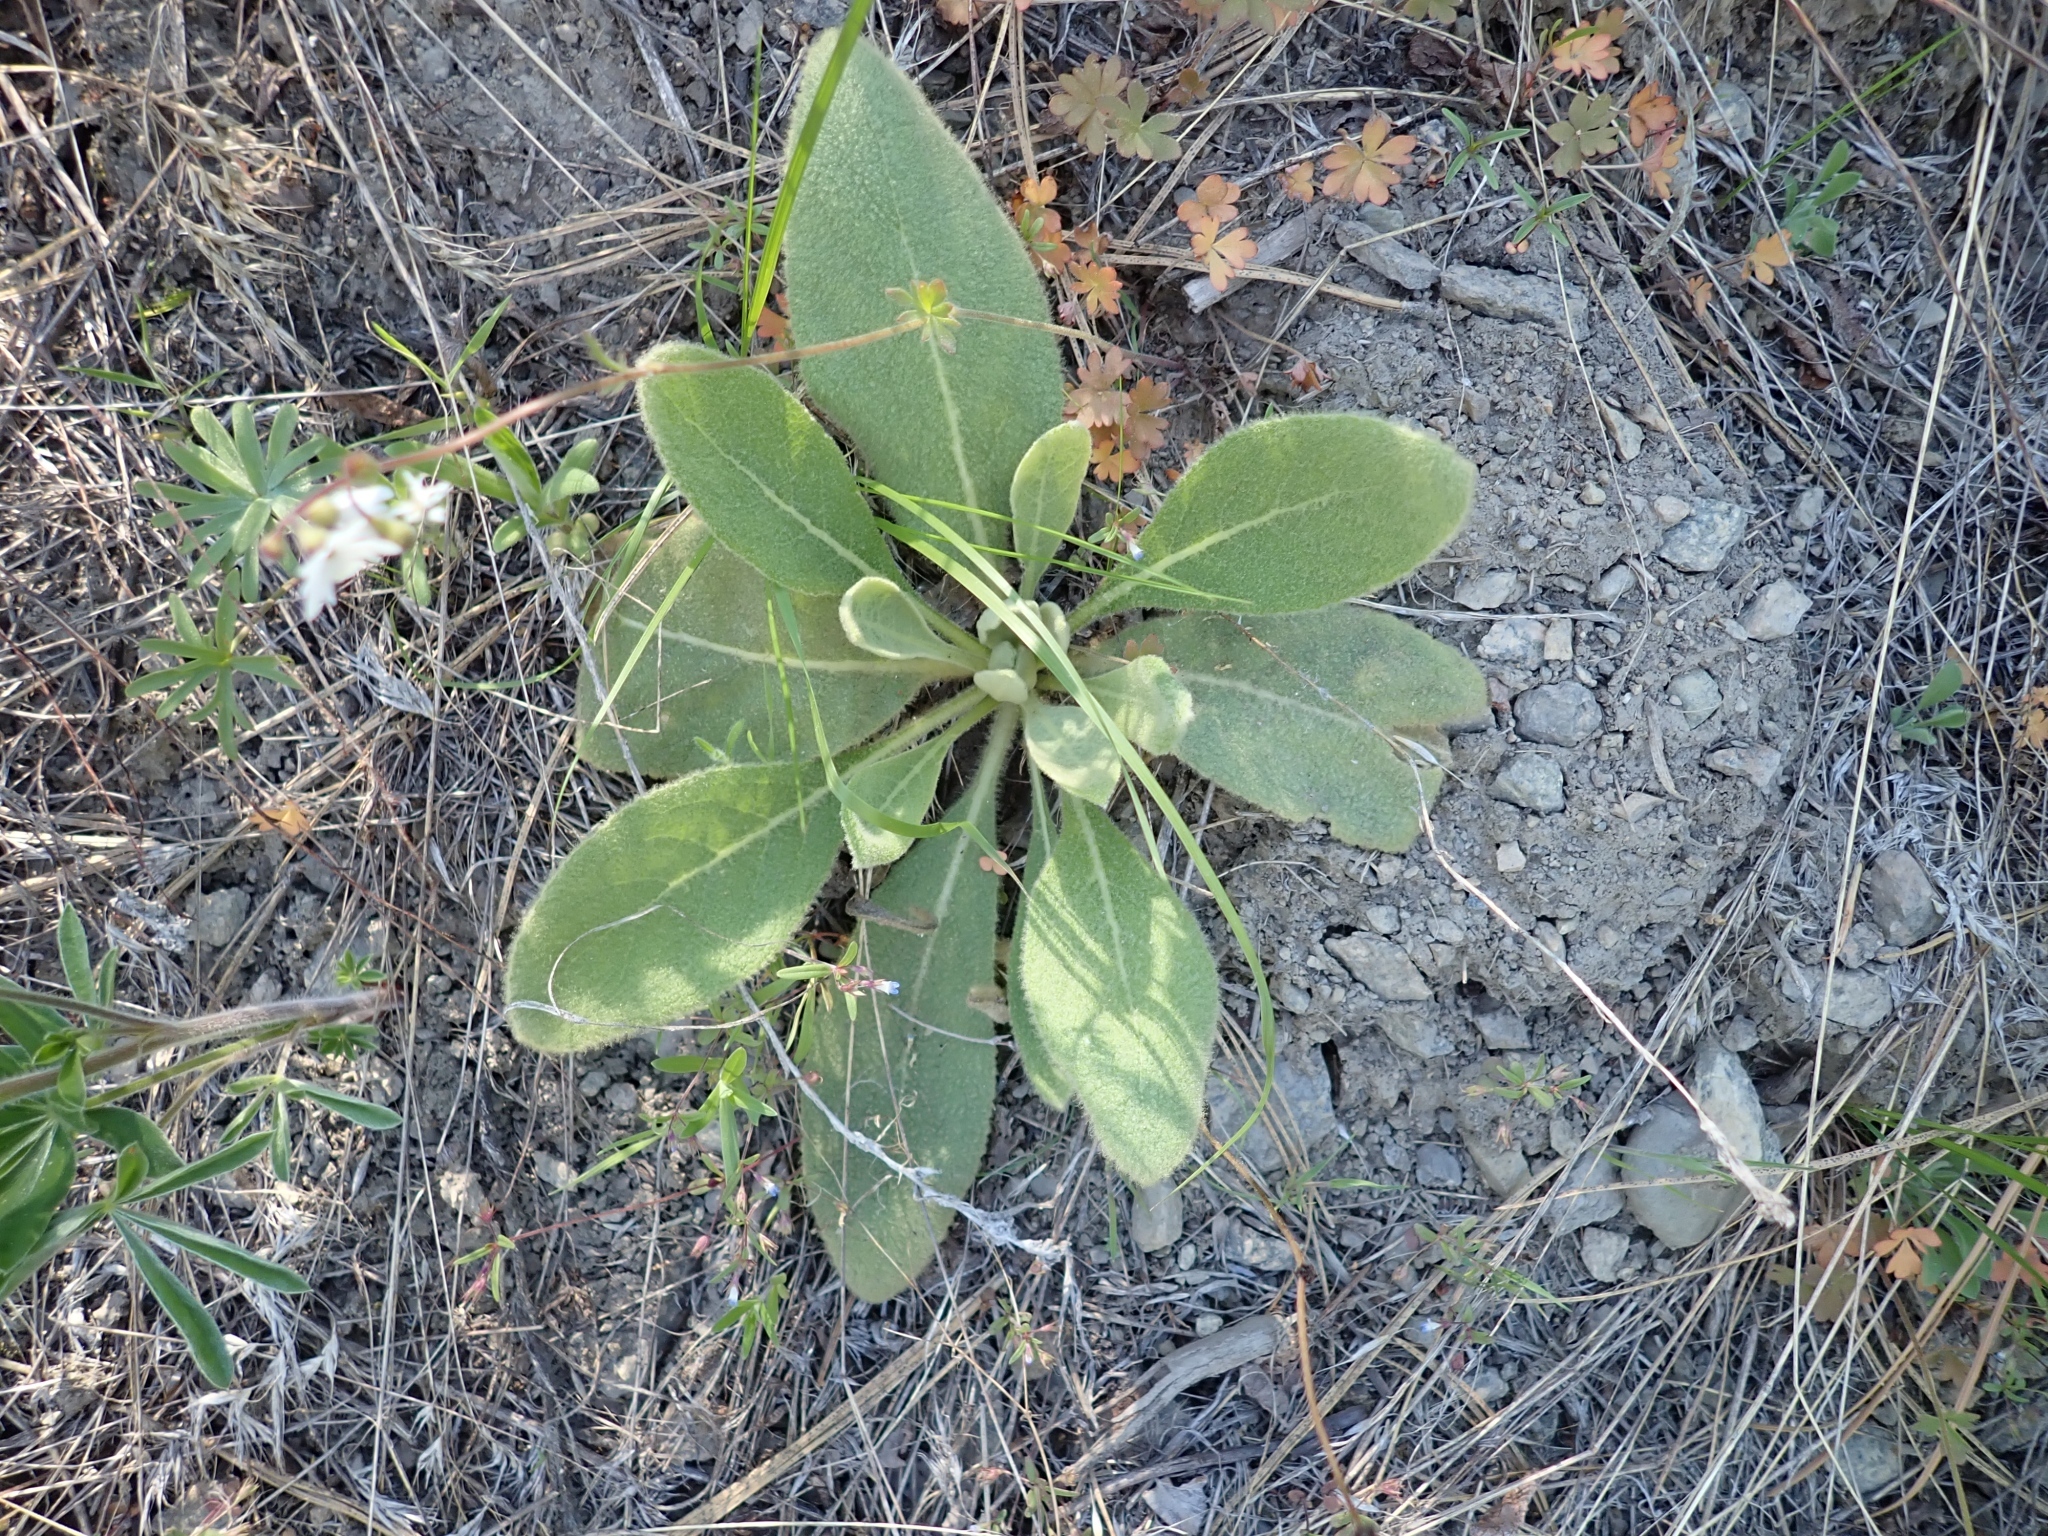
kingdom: Plantae
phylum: Tracheophyta
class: Magnoliopsida
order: Lamiales
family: Scrophulariaceae
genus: Verbascum
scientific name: Verbascum thapsus
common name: Common mullein
